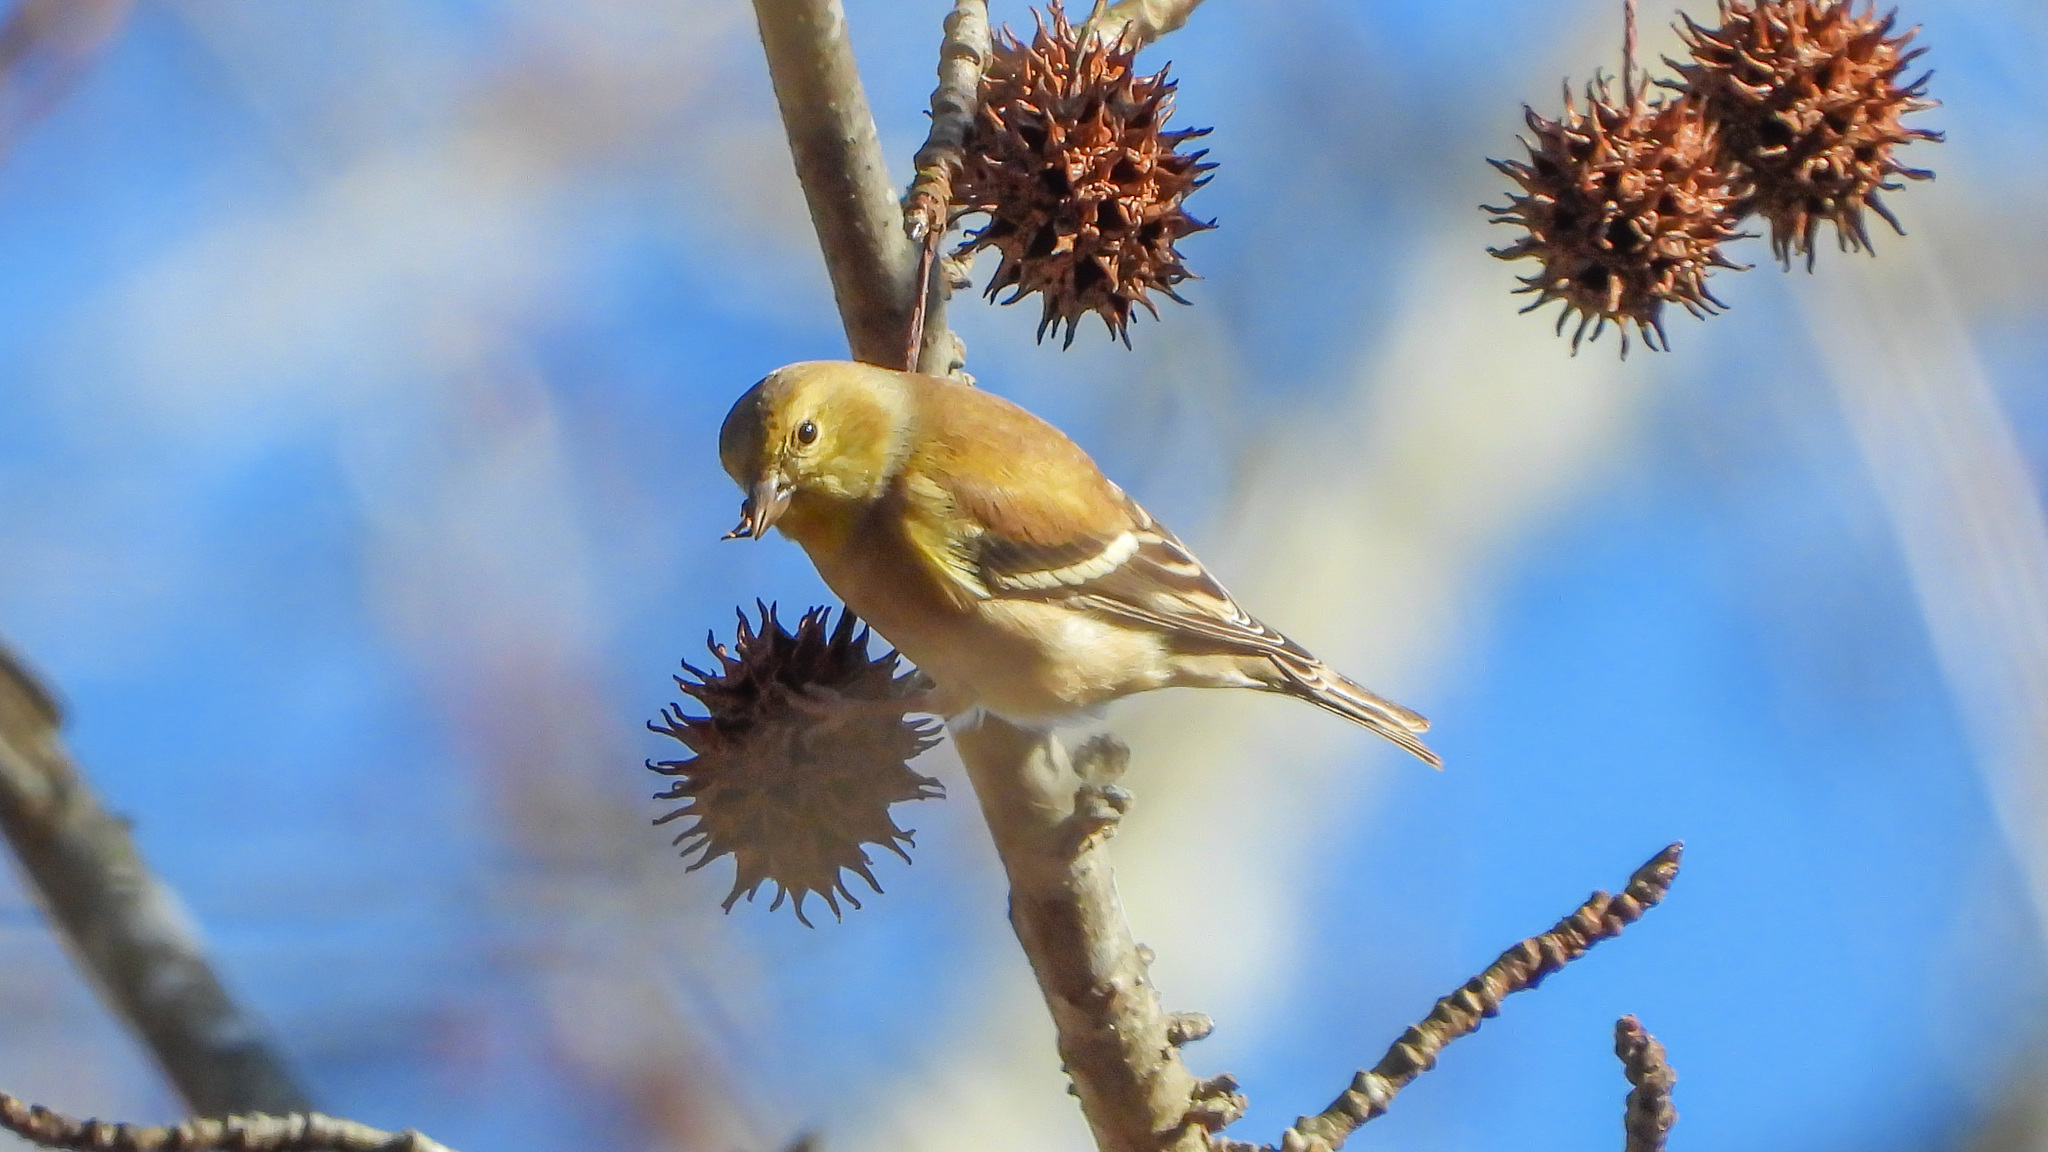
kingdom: Animalia
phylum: Chordata
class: Aves
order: Passeriformes
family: Fringillidae
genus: Spinus
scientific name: Spinus tristis
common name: American goldfinch
